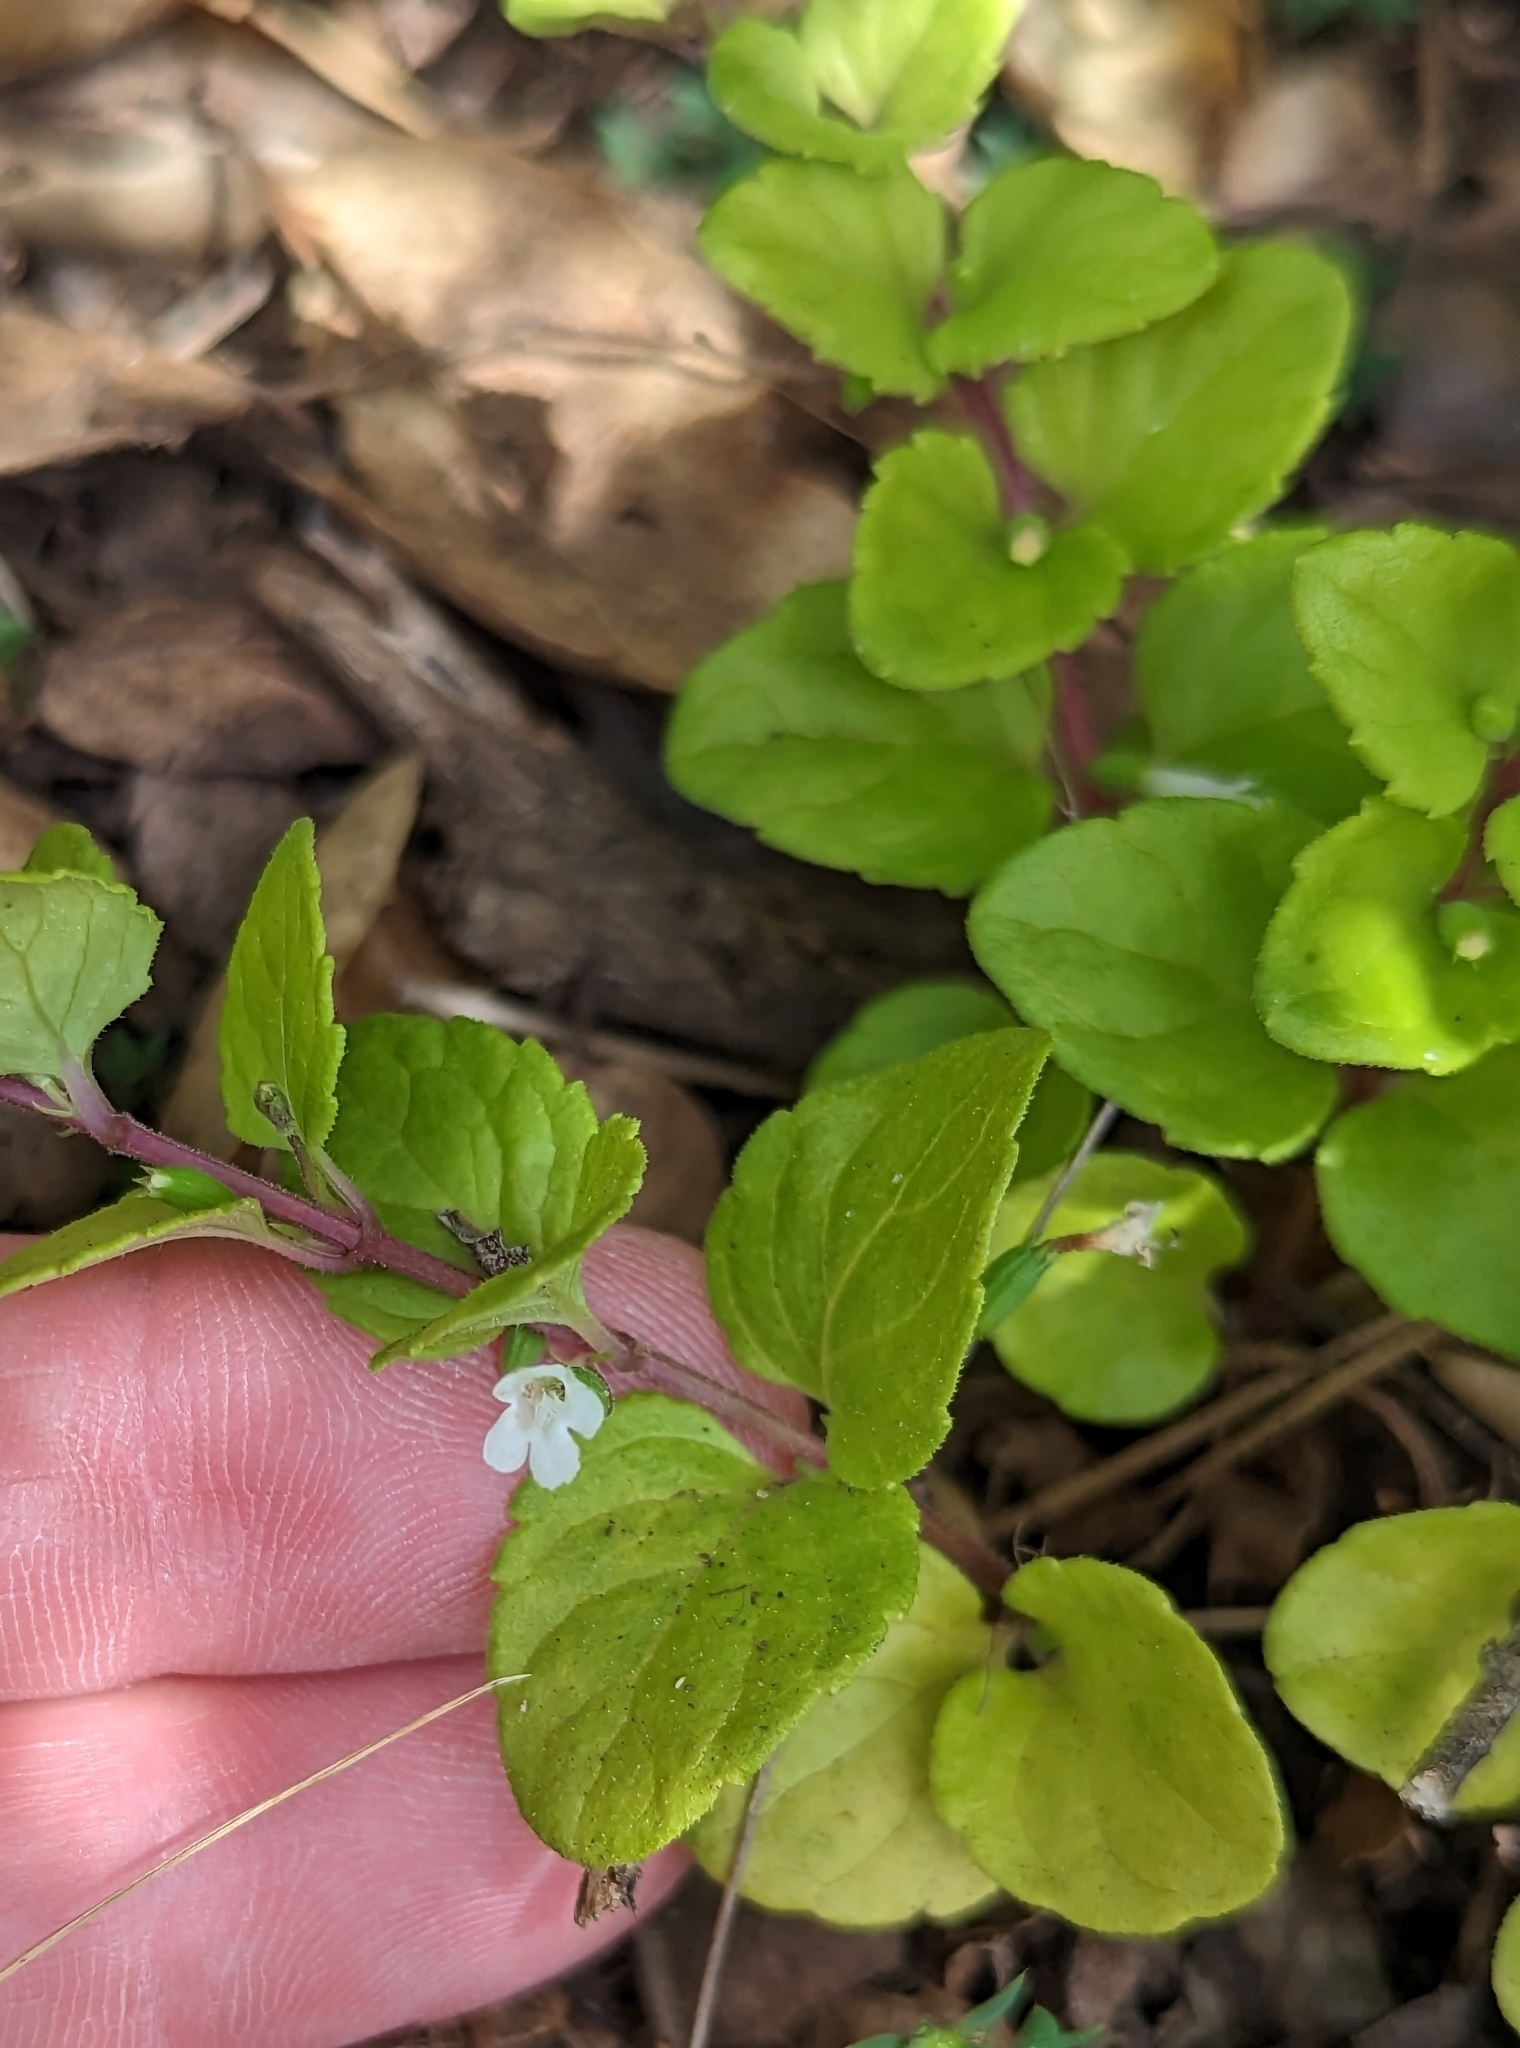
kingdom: Plantae
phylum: Tracheophyta
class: Magnoliopsida
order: Lamiales
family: Lamiaceae
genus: Micromeria
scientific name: Micromeria douglasii
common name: Yerba buena
